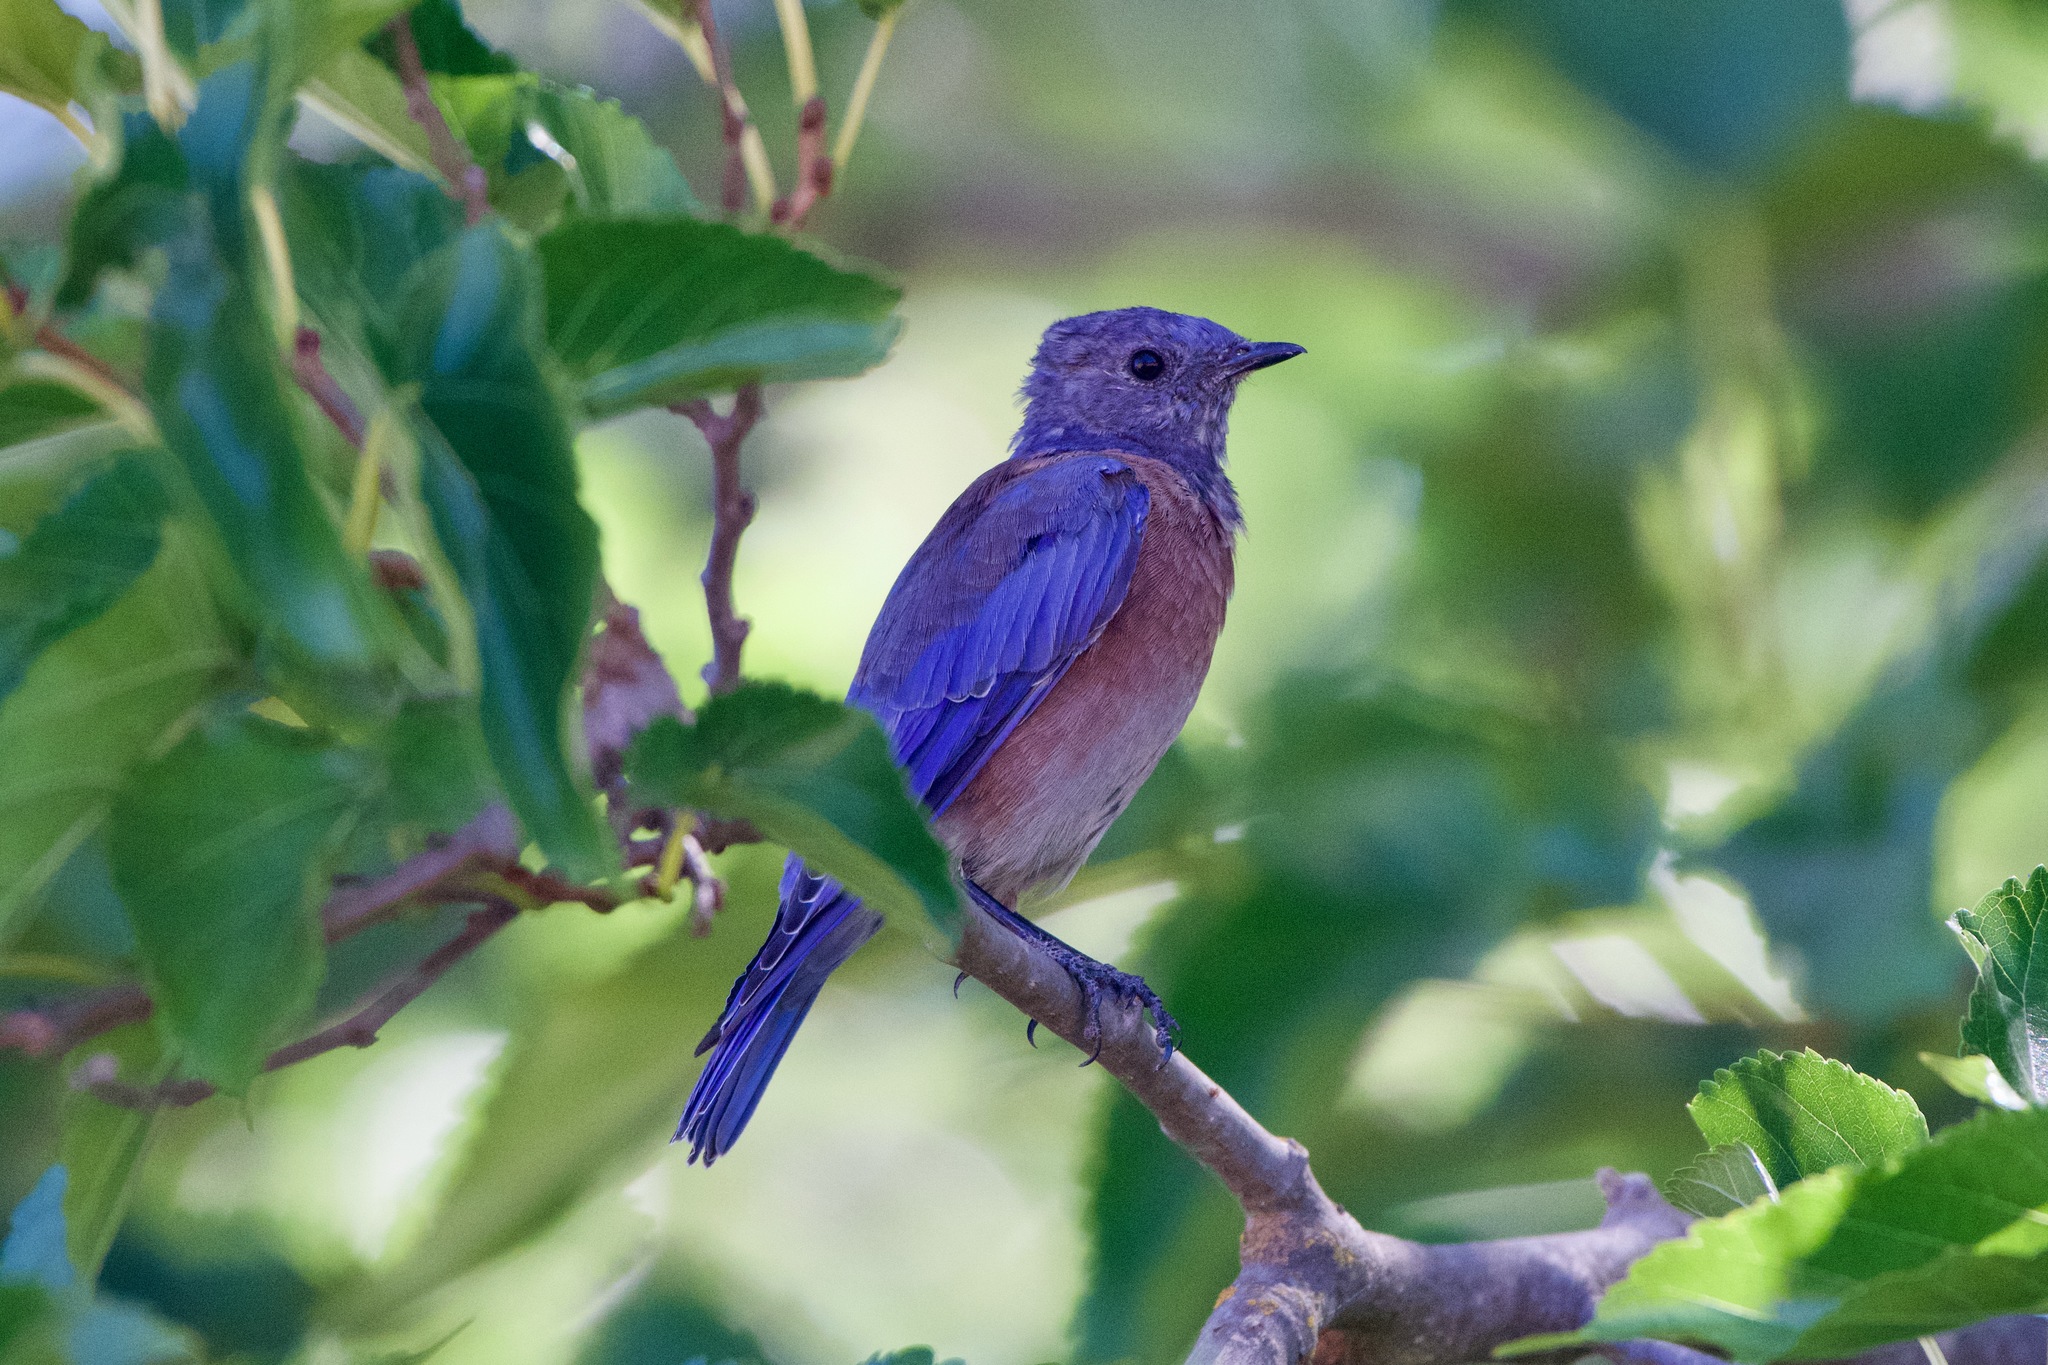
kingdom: Animalia
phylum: Chordata
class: Aves
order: Passeriformes
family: Turdidae
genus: Sialia
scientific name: Sialia mexicana
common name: Western bluebird
